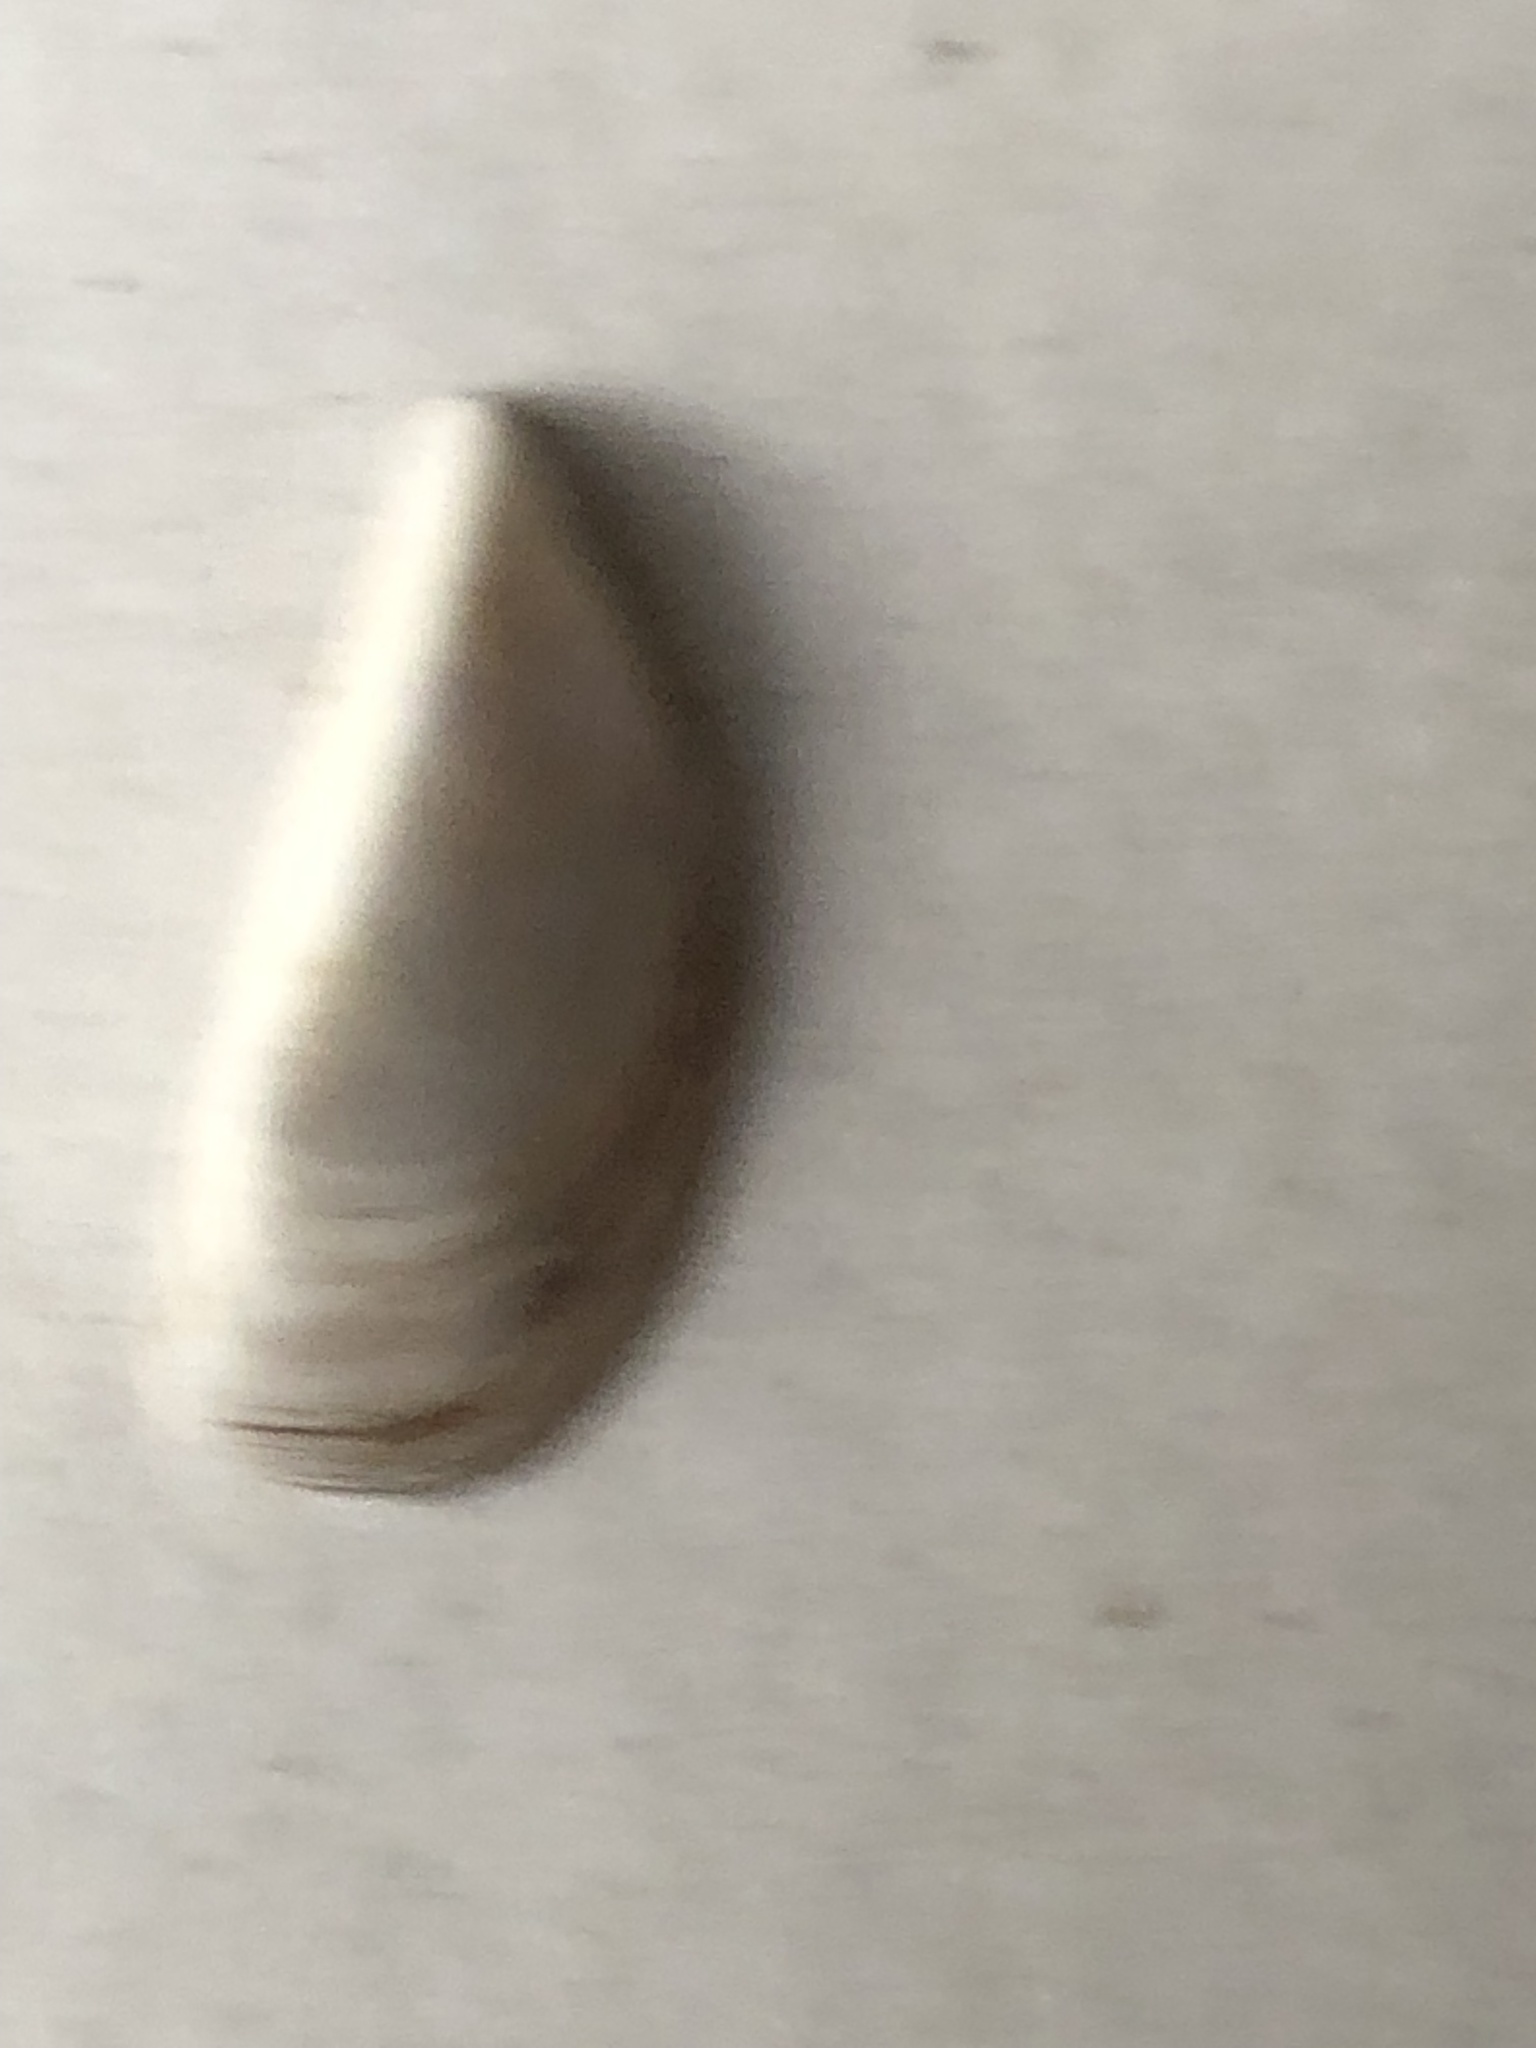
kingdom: Animalia
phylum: Mollusca
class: Bivalvia
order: Myida
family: Dreissenidae
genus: Dreissena
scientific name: Dreissena polymorpha
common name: Zebra mussel
